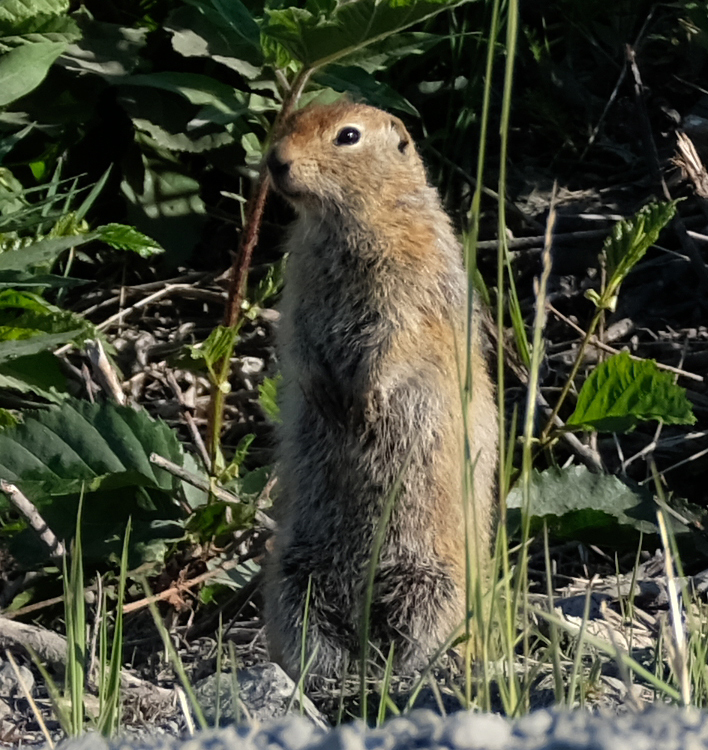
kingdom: Animalia
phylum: Chordata
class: Mammalia
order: Rodentia
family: Sciuridae
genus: Urocitellus
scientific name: Urocitellus parryii
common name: Arctic ground squirrel
